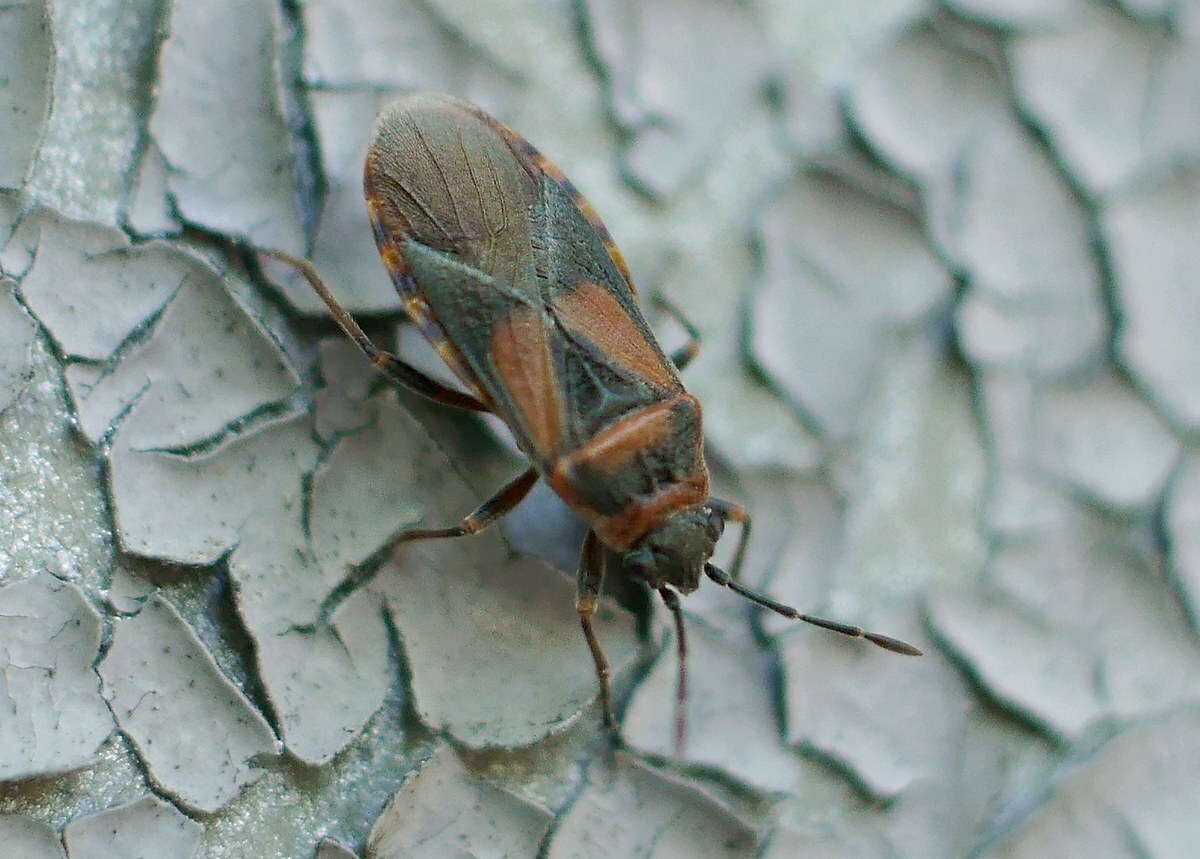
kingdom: Animalia
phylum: Arthropoda
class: Insecta
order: Hemiptera
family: Lygaeidae
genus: Arocatus
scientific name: Arocatus melanocephalus
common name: Lygaeid bug
